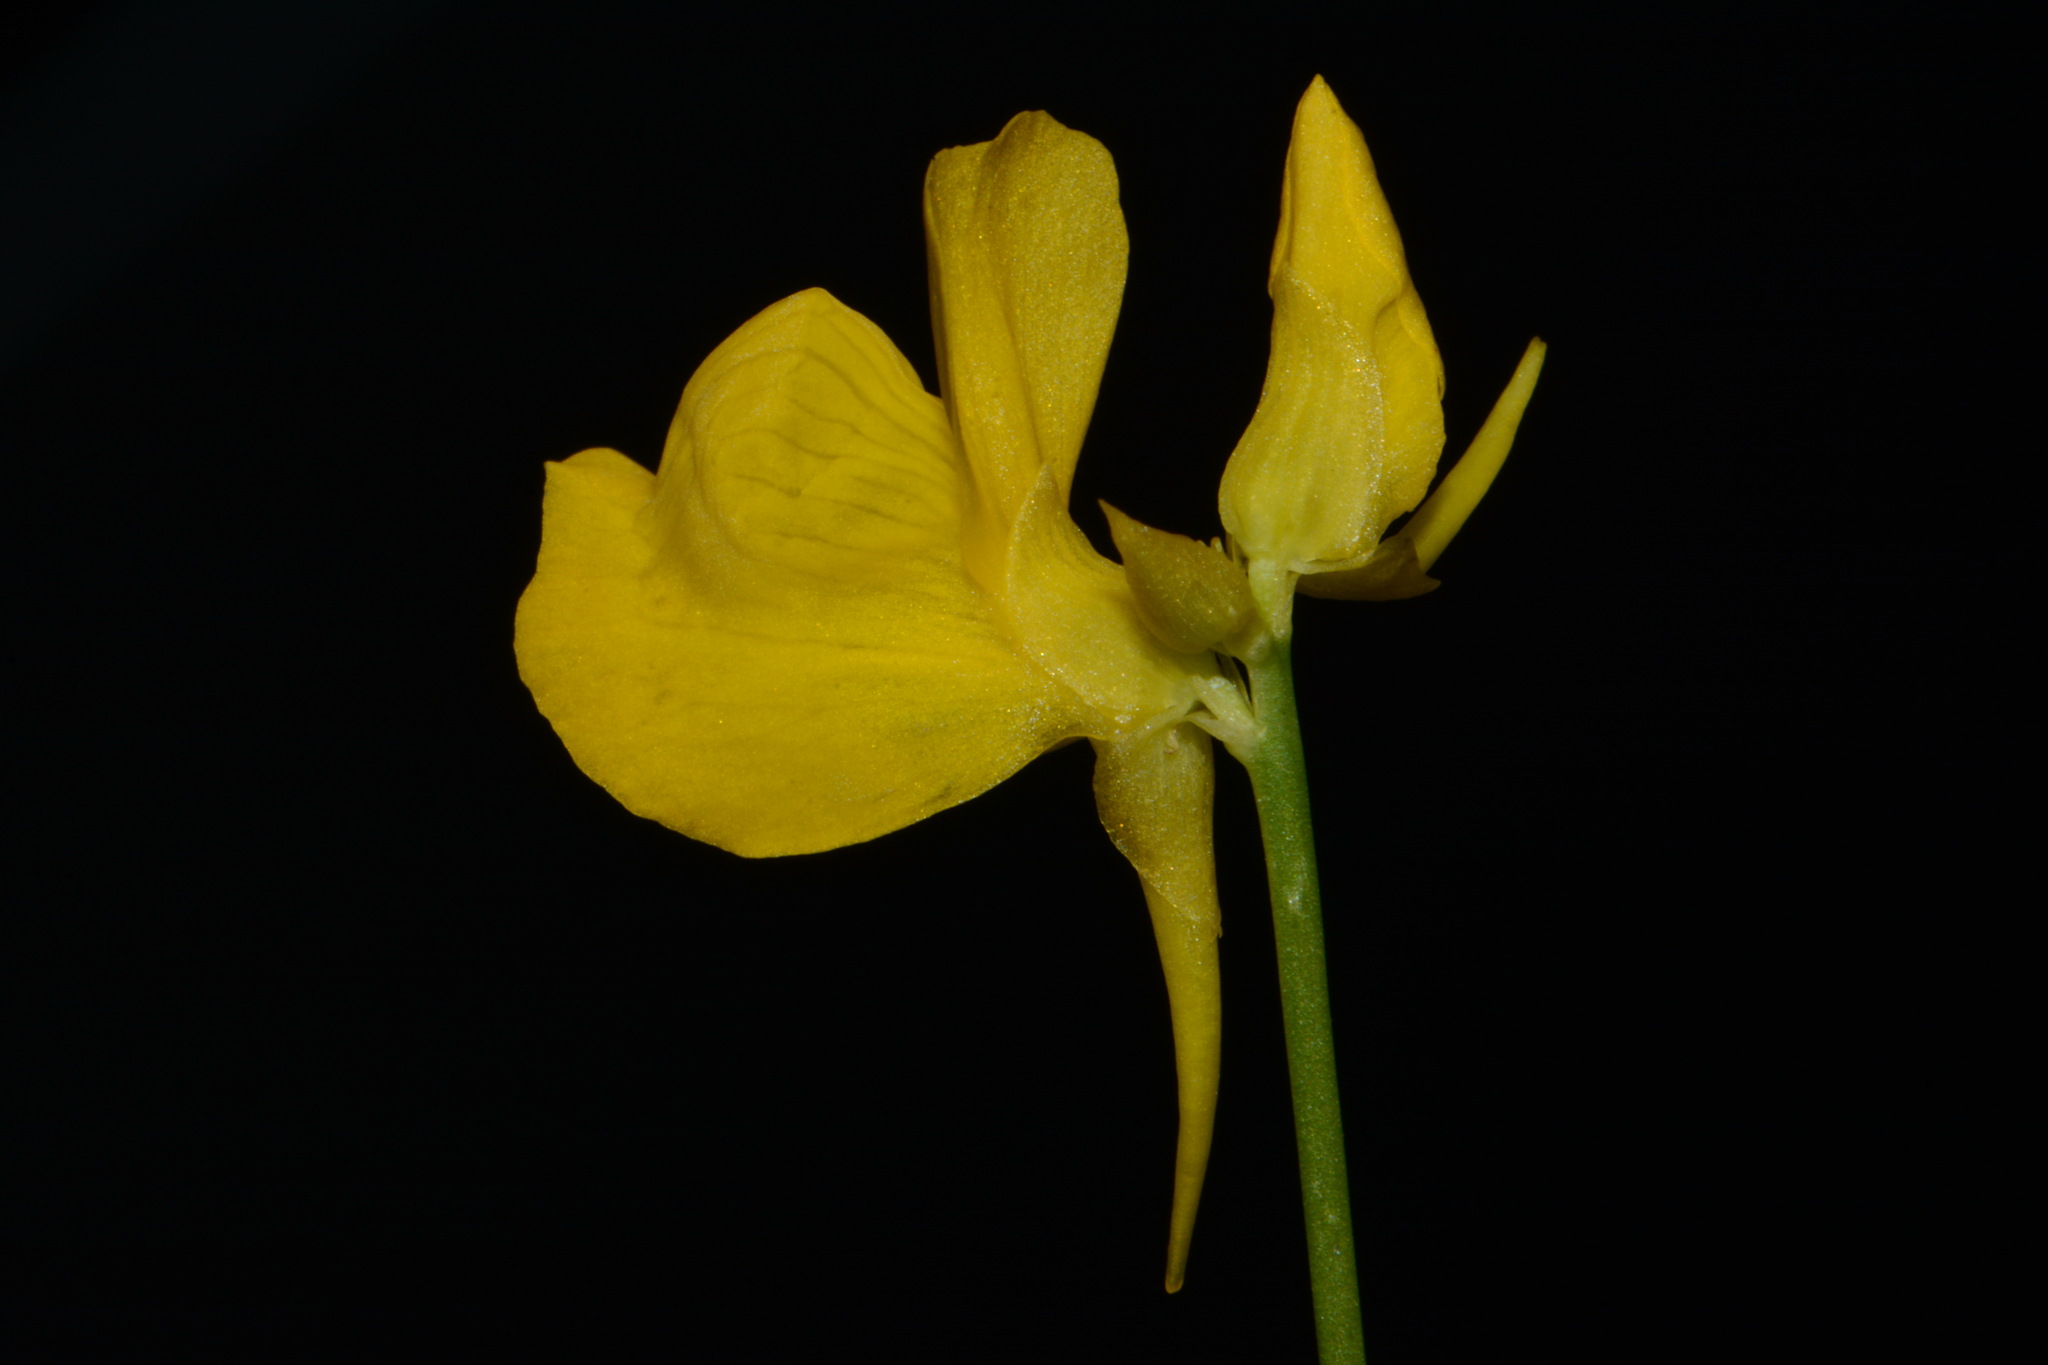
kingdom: Plantae
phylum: Tracheophyta
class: Magnoliopsida
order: Lamiales
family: Lentibulariaceae
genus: Utricularia
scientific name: Utricularia cornuta
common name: Horned bladderwort
